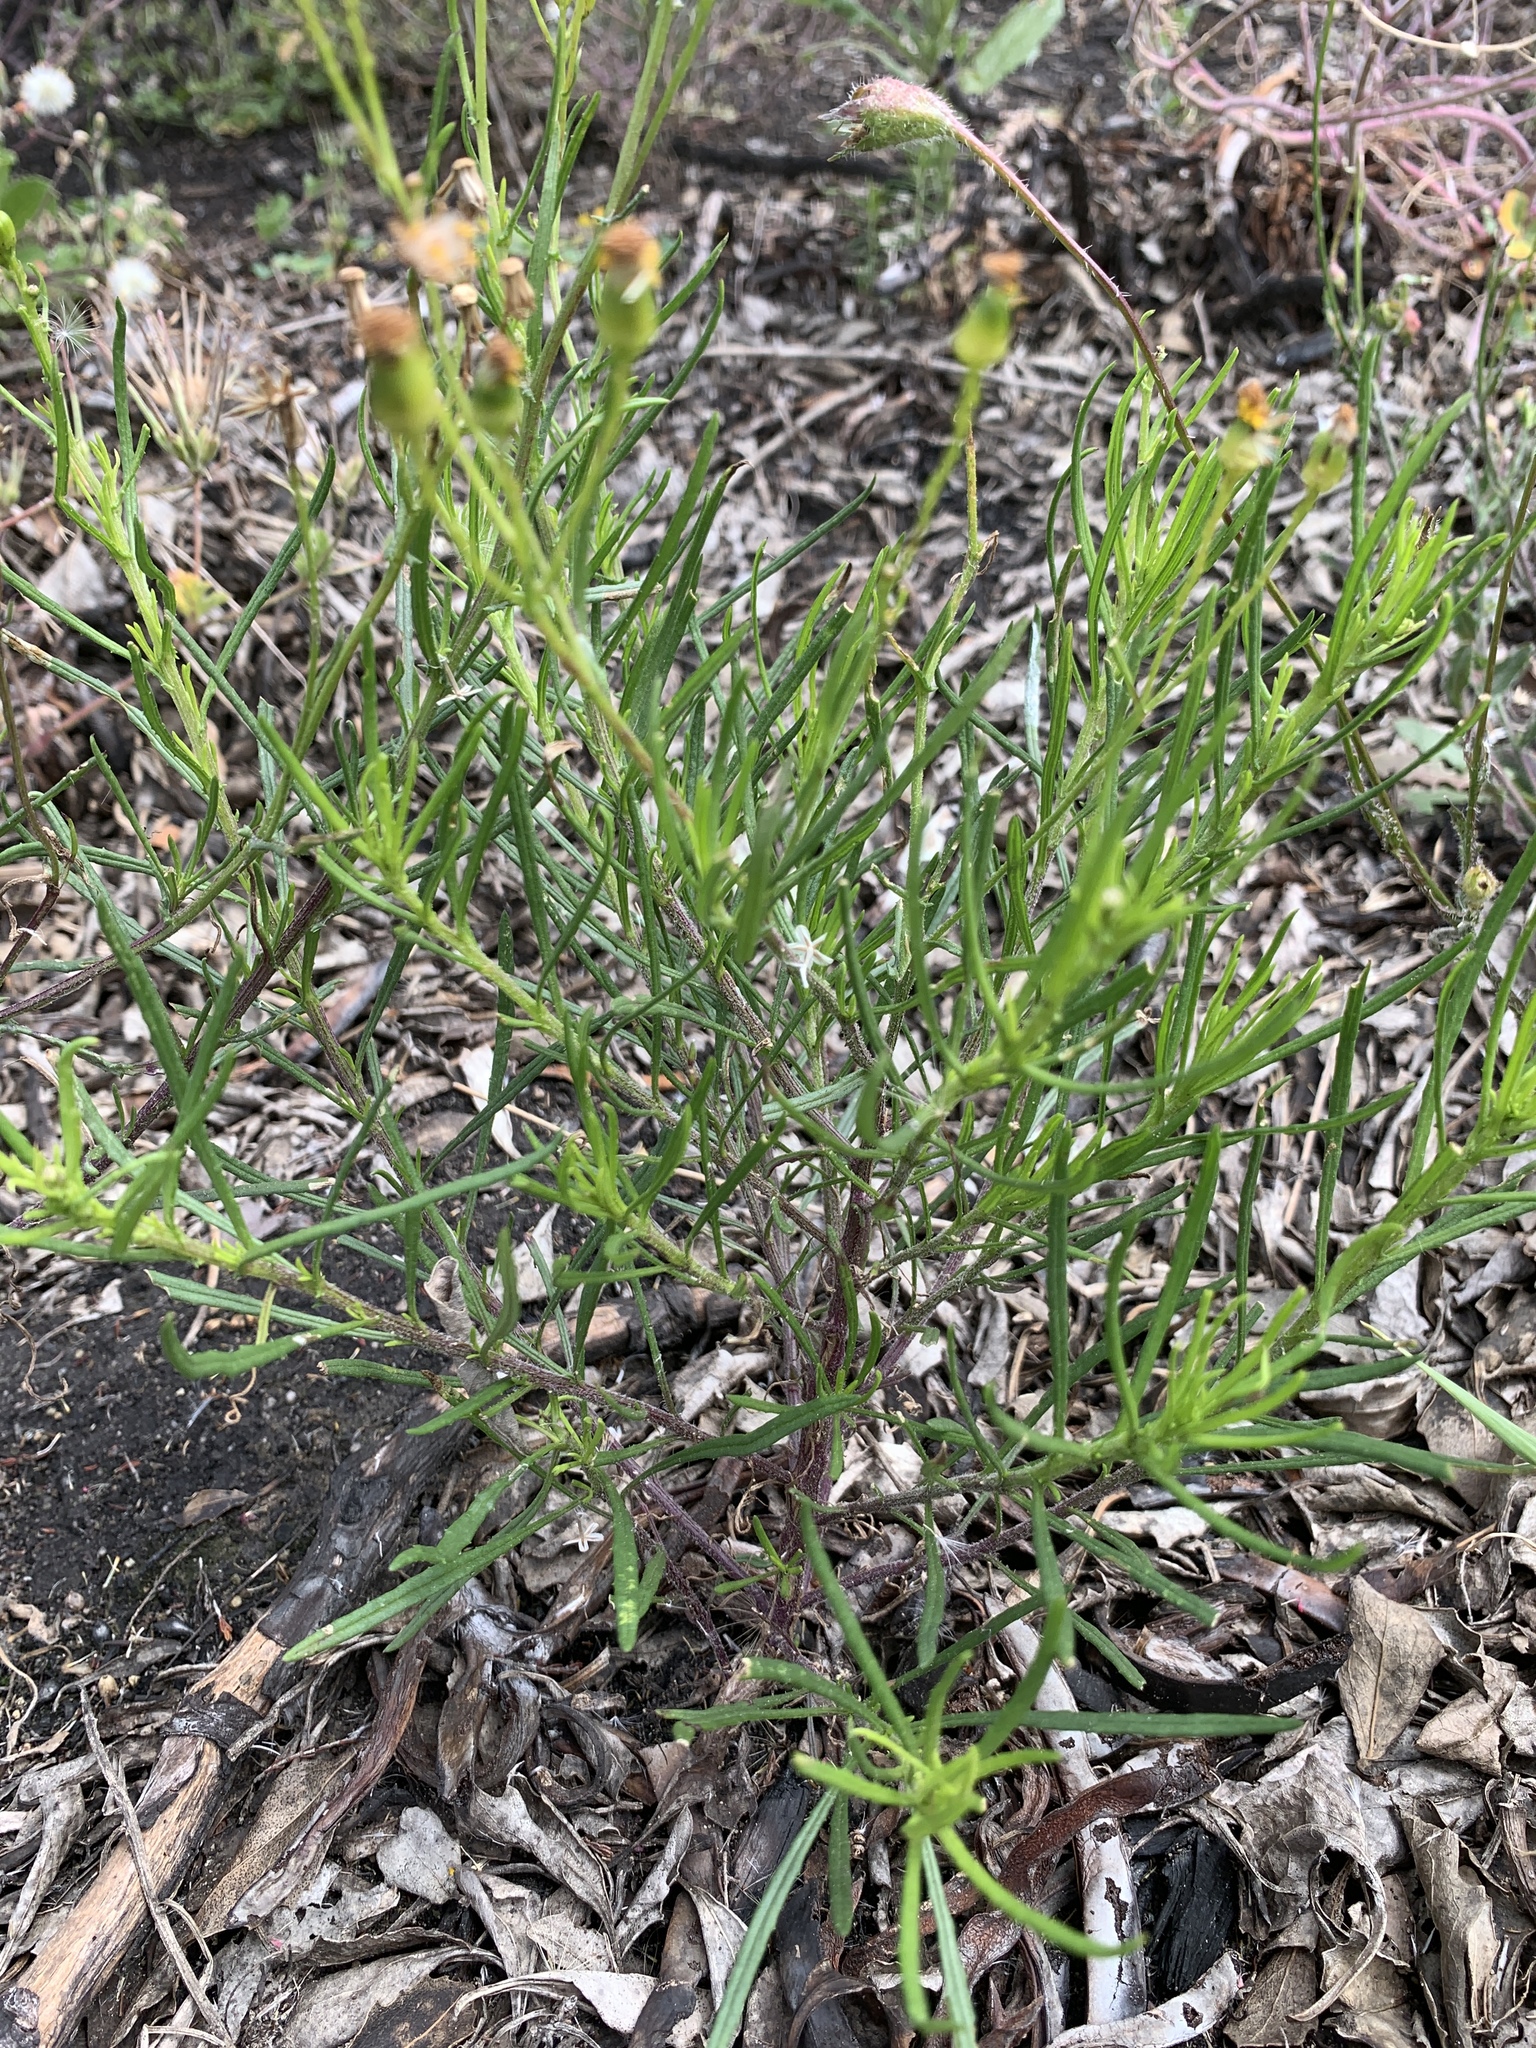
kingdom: Plantae
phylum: Tracheophyta
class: Magnoliopsida
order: Asterales
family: Asteraceae
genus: Senecio
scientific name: Senecio burchellii
